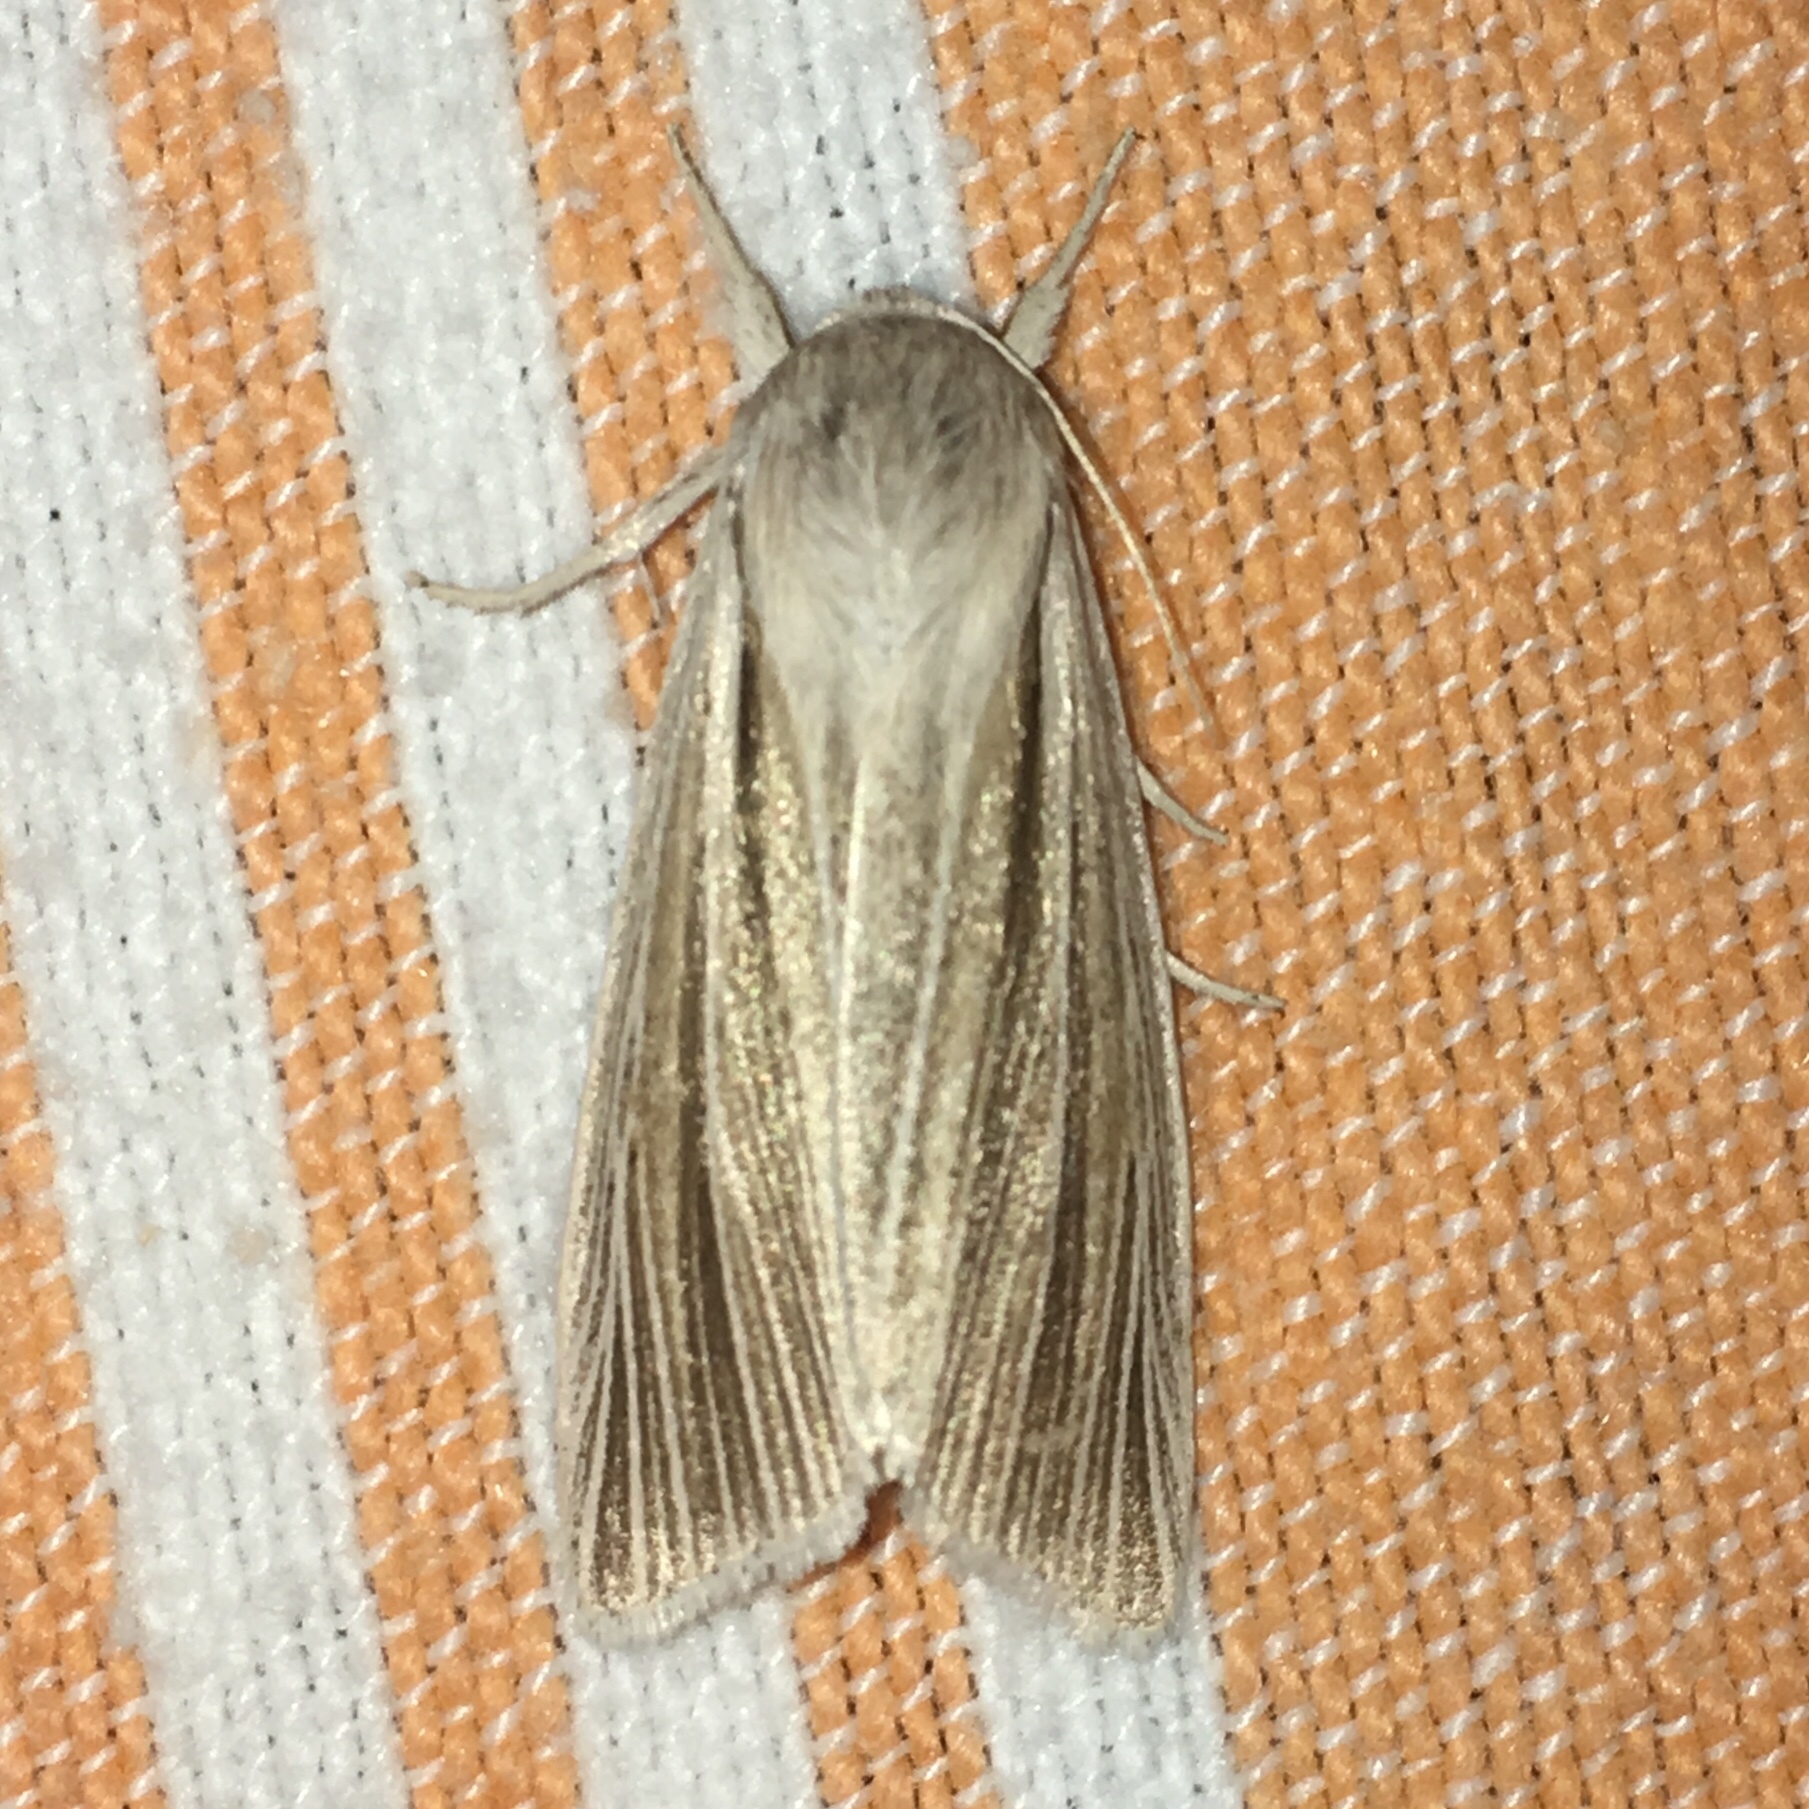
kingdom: Animalia
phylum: Arthropoda
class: Insecta
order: Lepidoptera
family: Noctuidae
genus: Acronicta
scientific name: Acronicta insularis
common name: Henry's marsh moth
